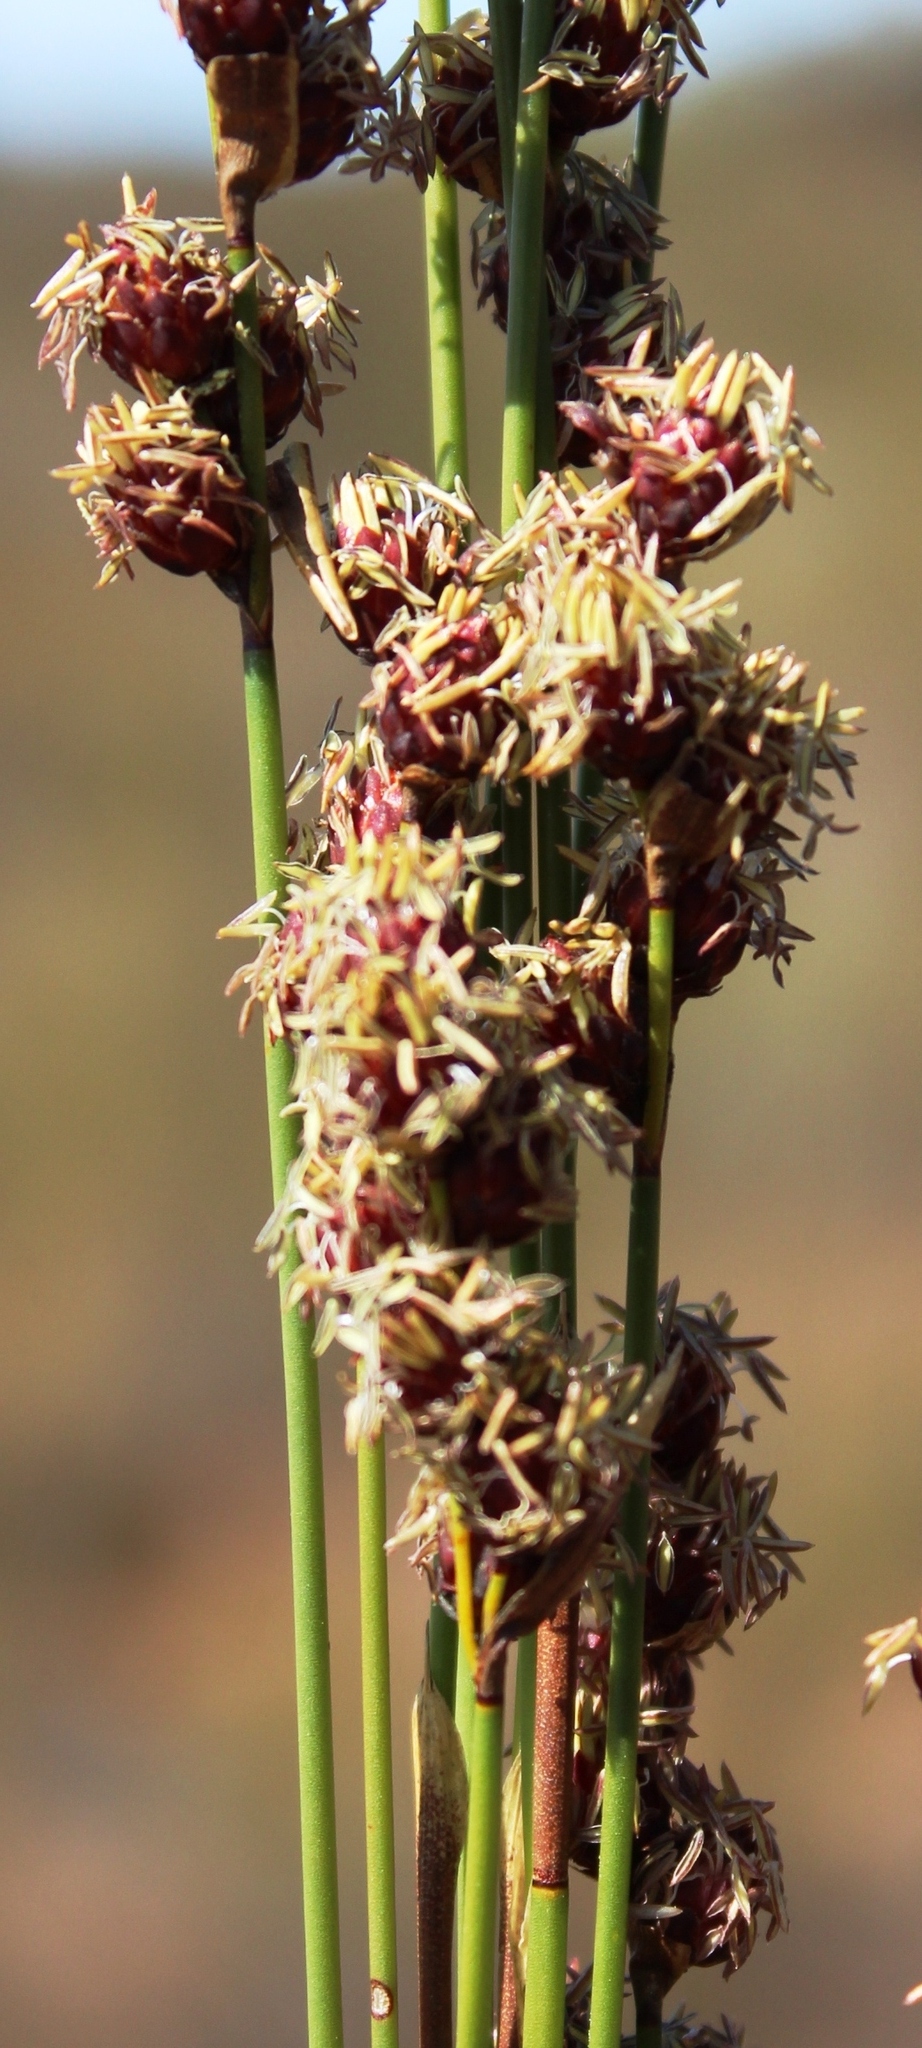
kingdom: Plantae
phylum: Tracheophyta
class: Liliopsida
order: Poales
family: Restionaceae
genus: Hypodiscus
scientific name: Hypodiscus laevigatus
